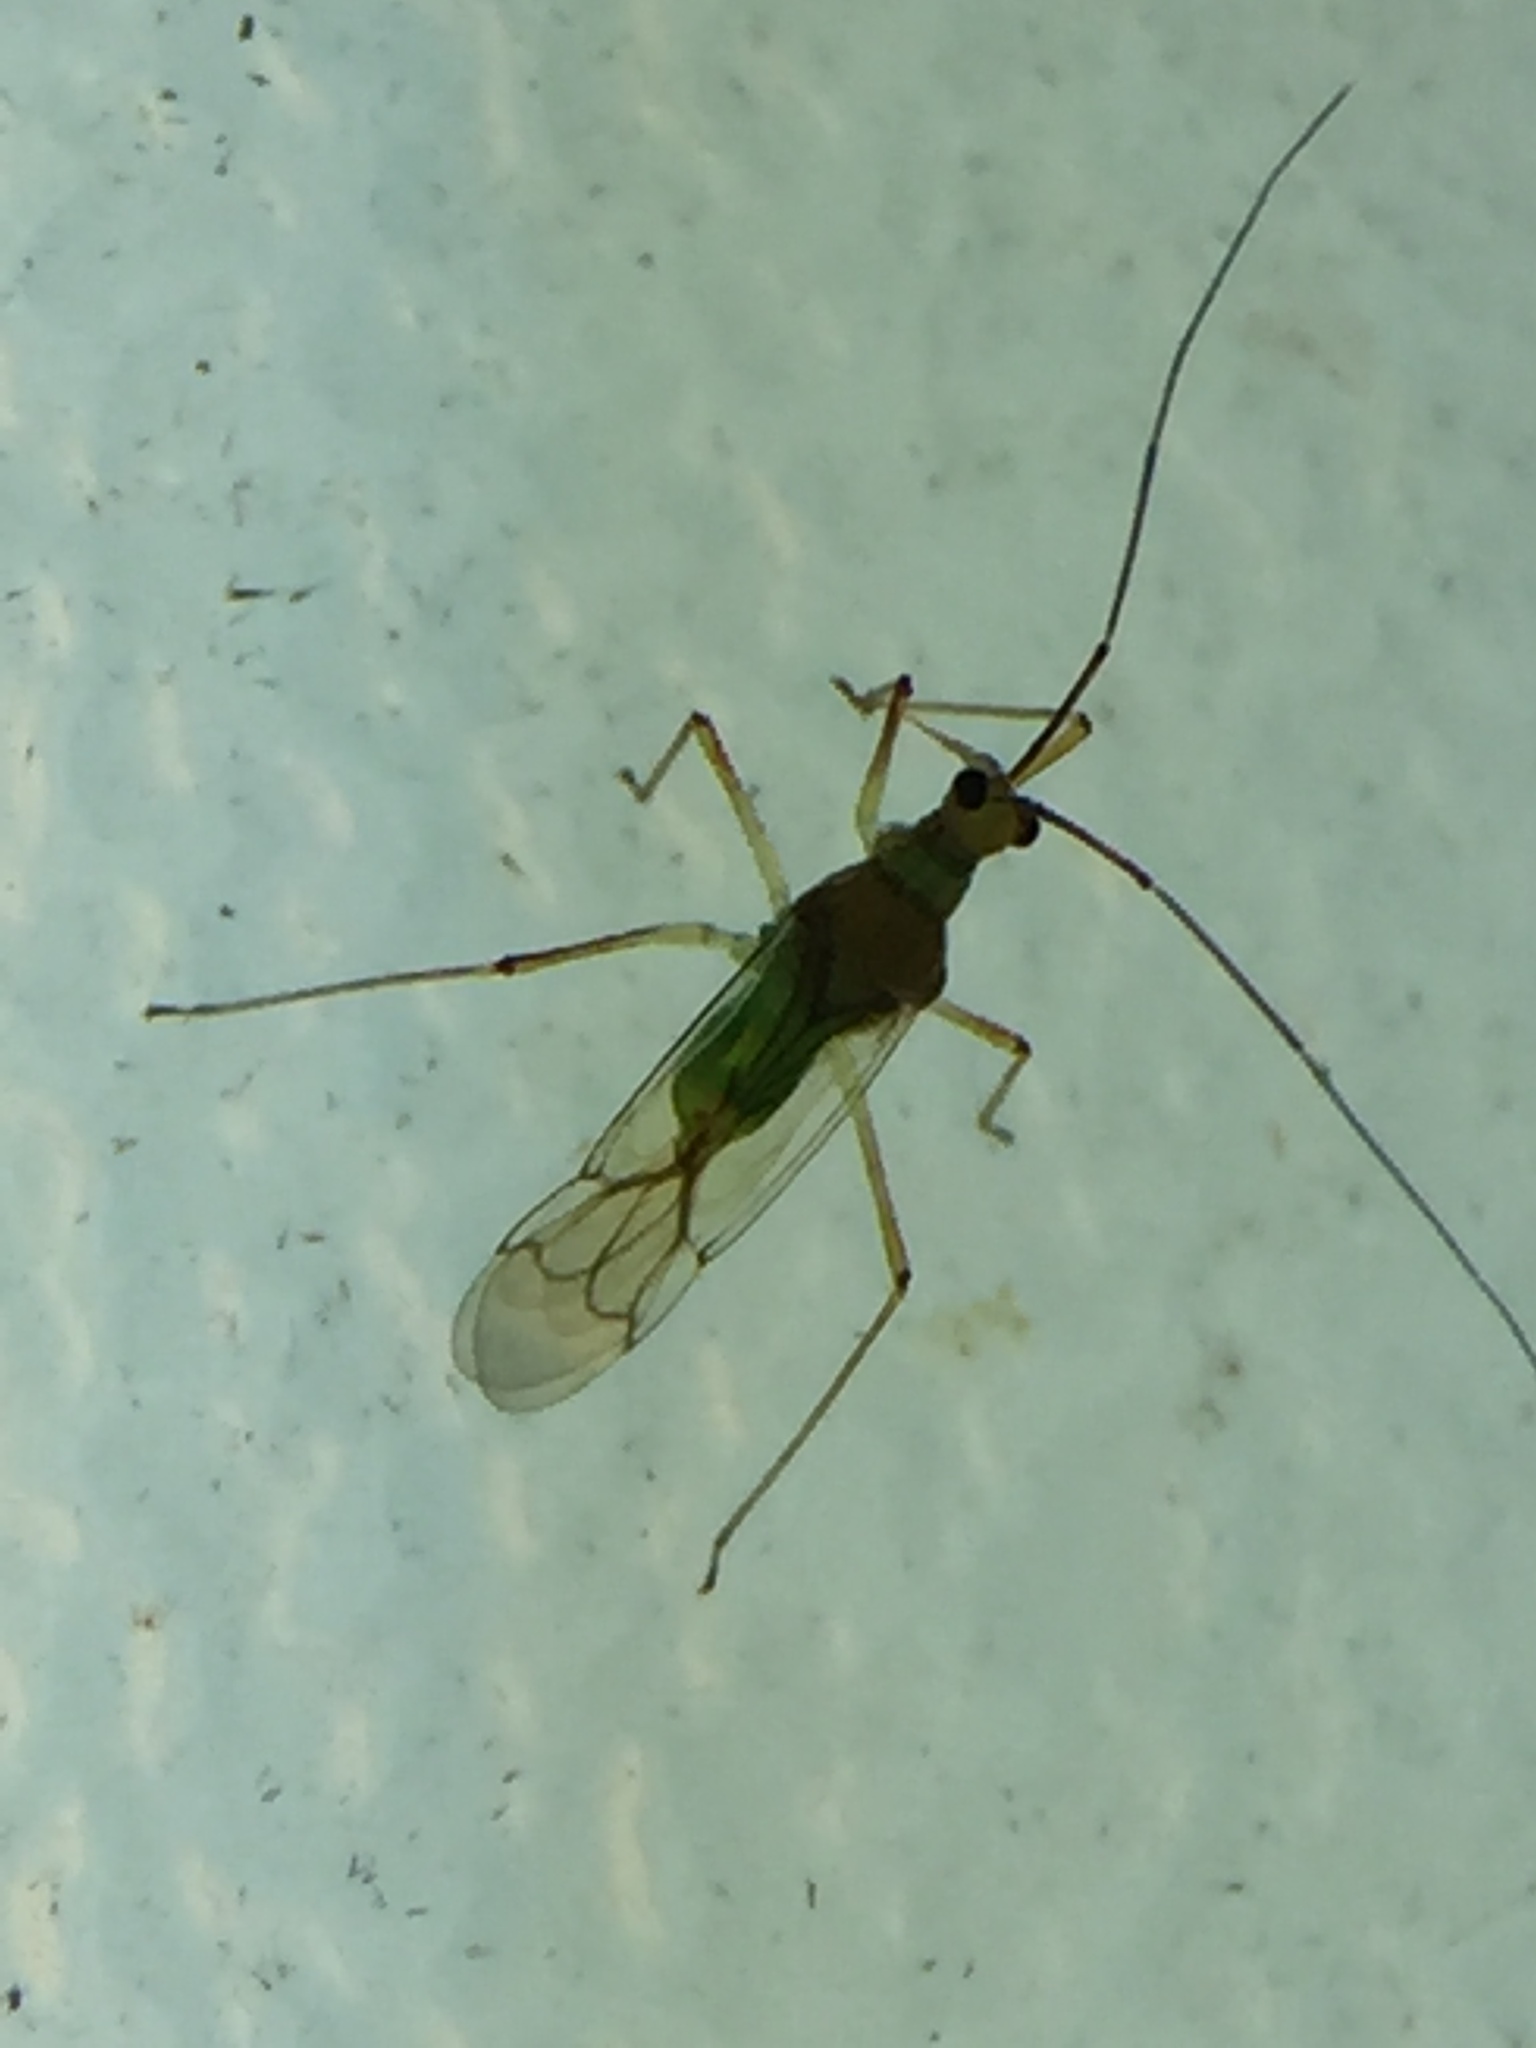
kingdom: Animalia
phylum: Arthropoda
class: Insecta
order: Hemiptera
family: Miridae
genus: Felisacus
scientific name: Felisacus elegantulus
